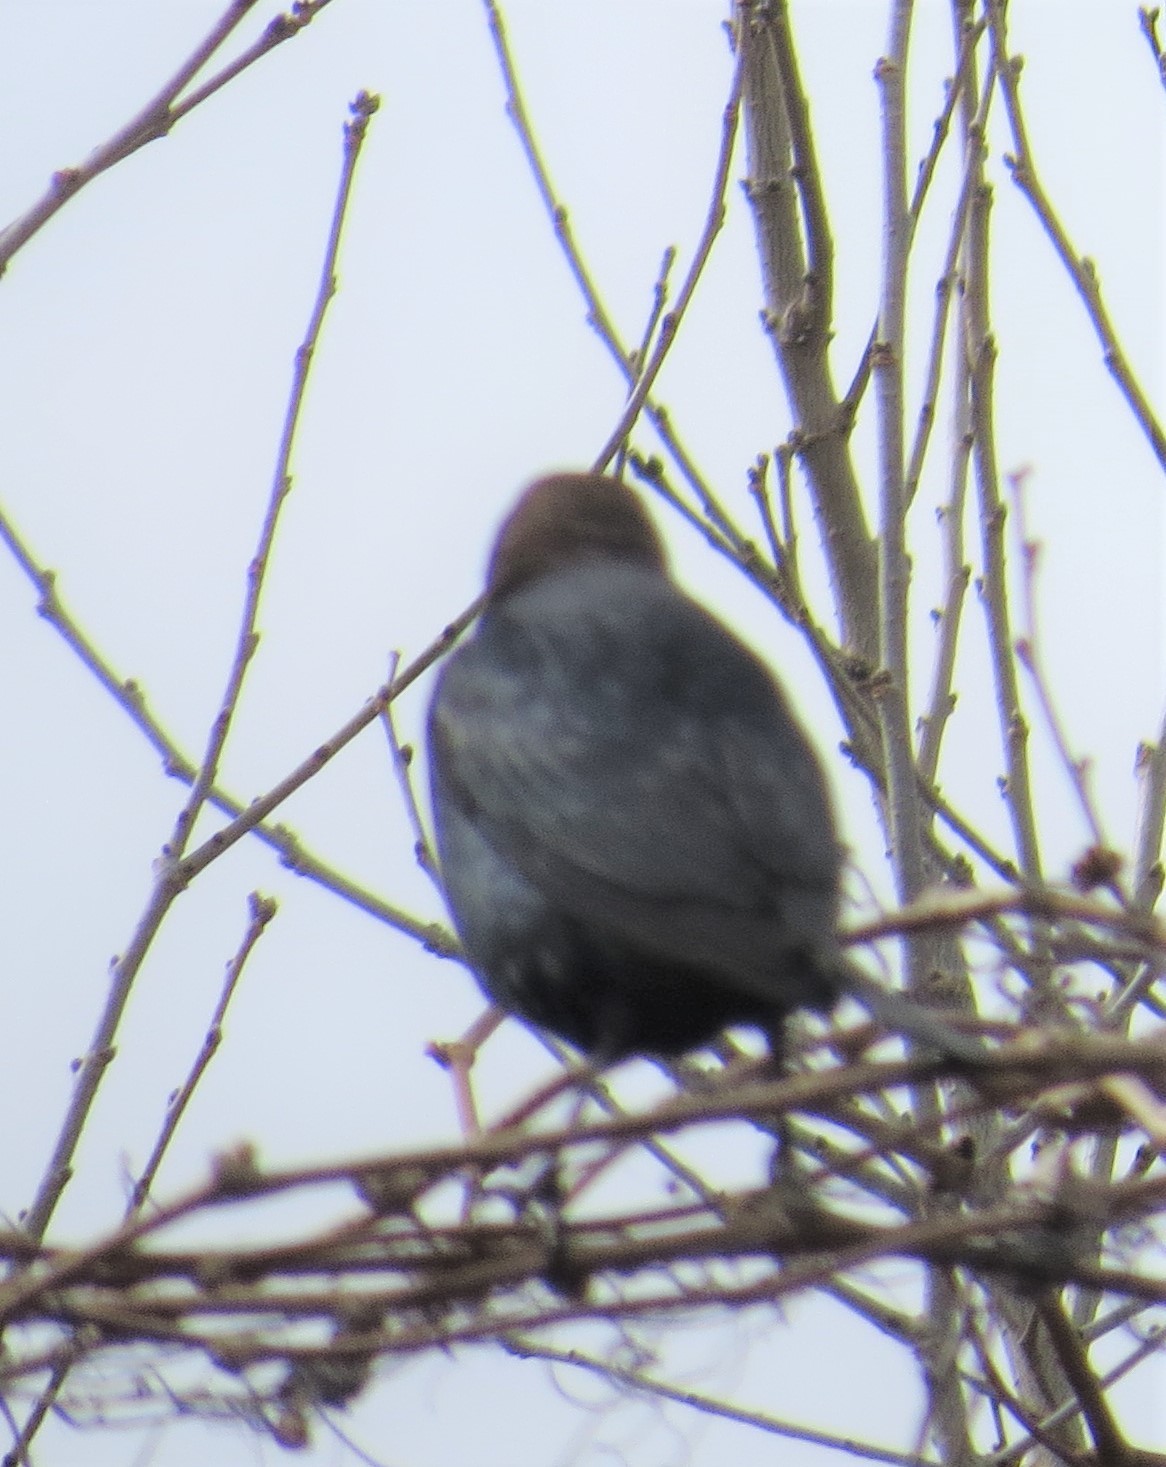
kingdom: Animalia
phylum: Chordata
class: Aves
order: Passeriformes
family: Icteridae
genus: Molothrus
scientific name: Molothrus ater
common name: Brown-headed cowbird
